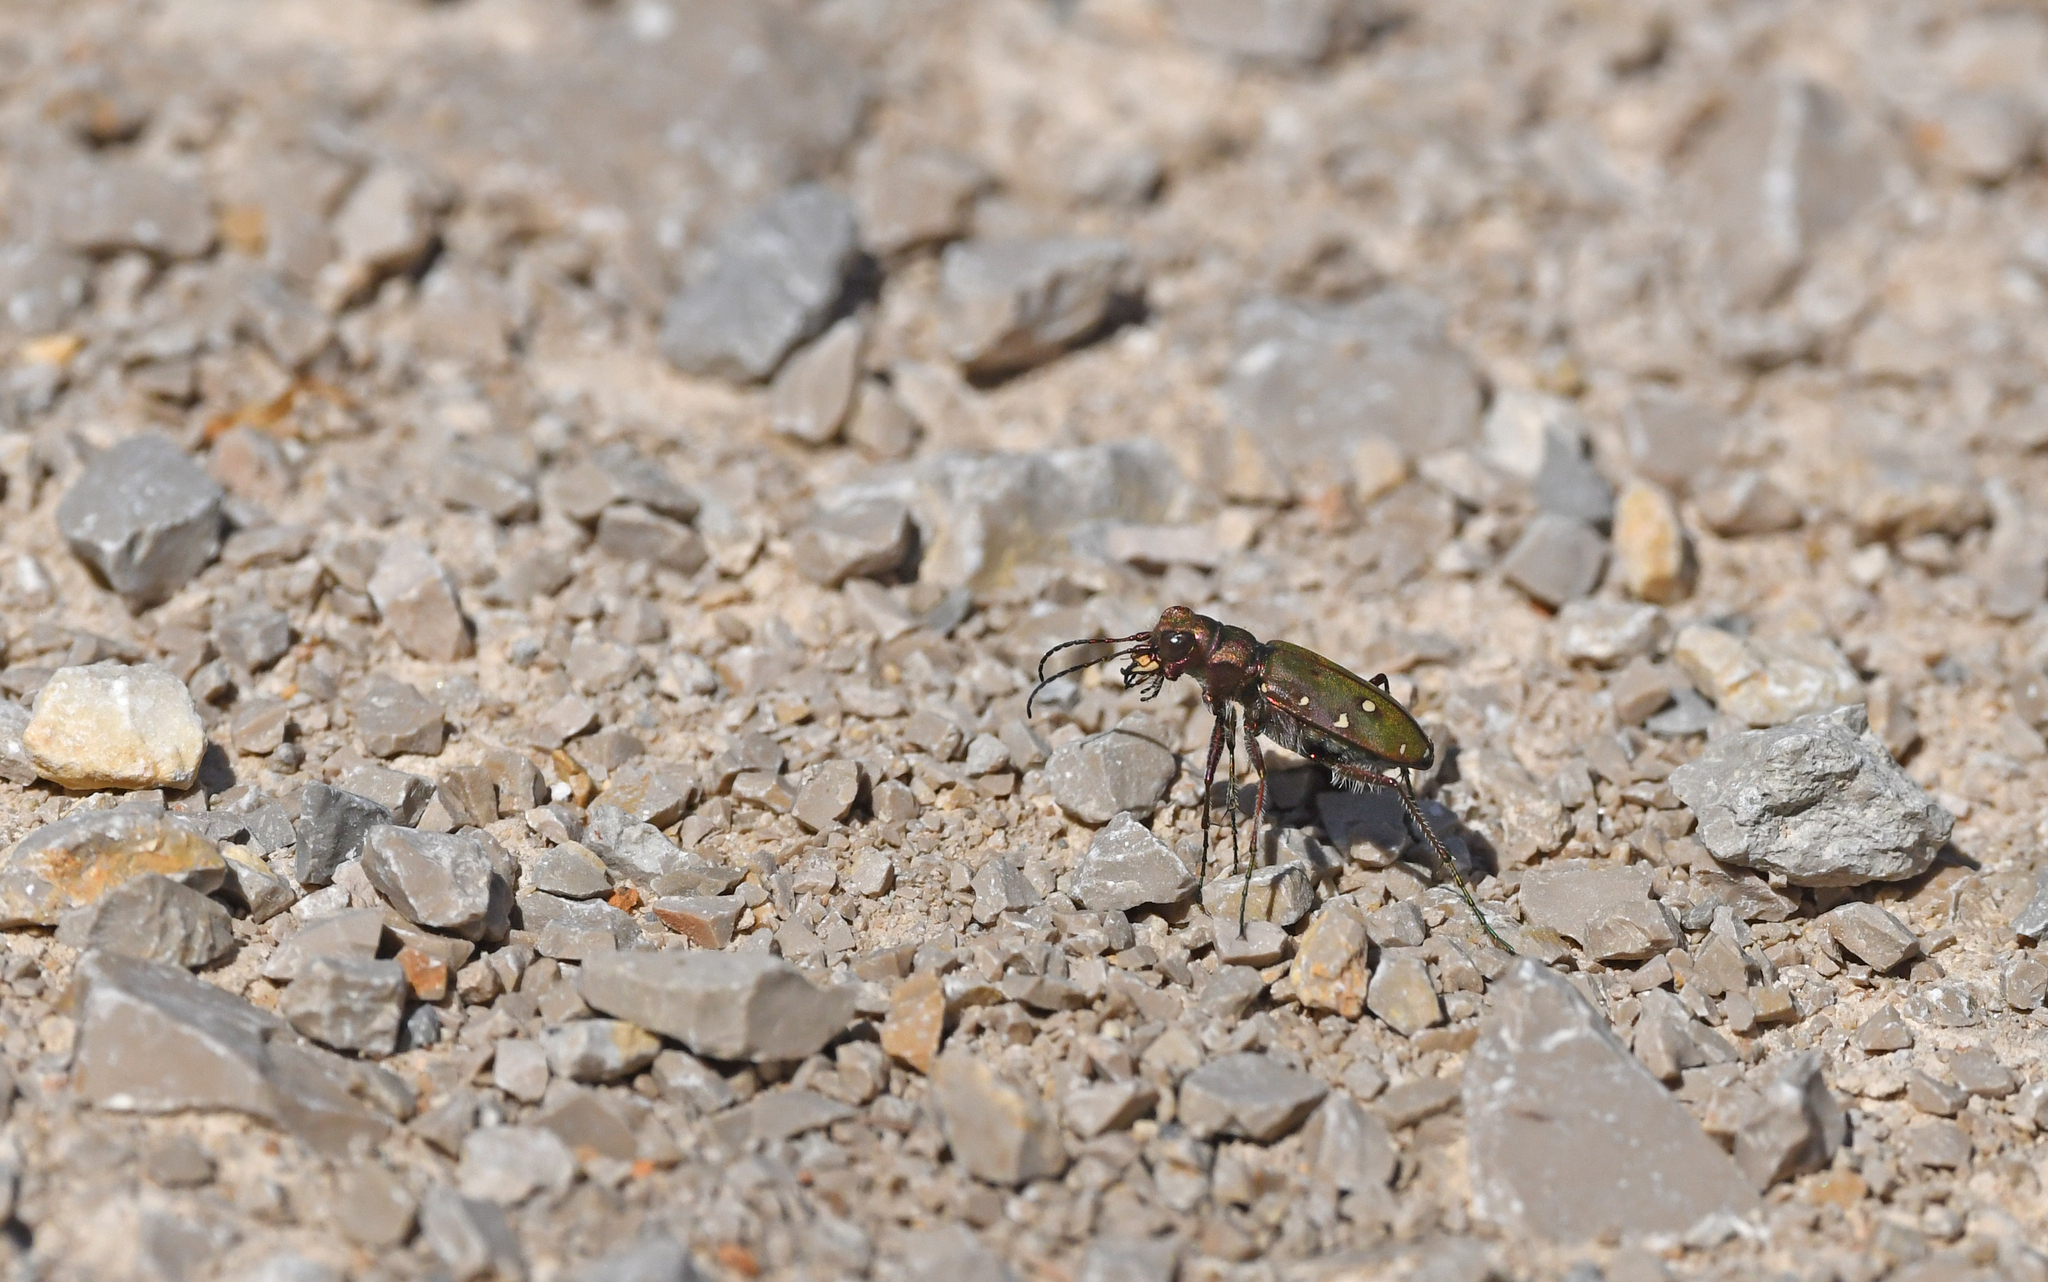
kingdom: Animalia
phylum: Arthropoda
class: Insecta
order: Coleoptera
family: Carabidae
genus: Cicindela
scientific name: Cicindela maroccana
